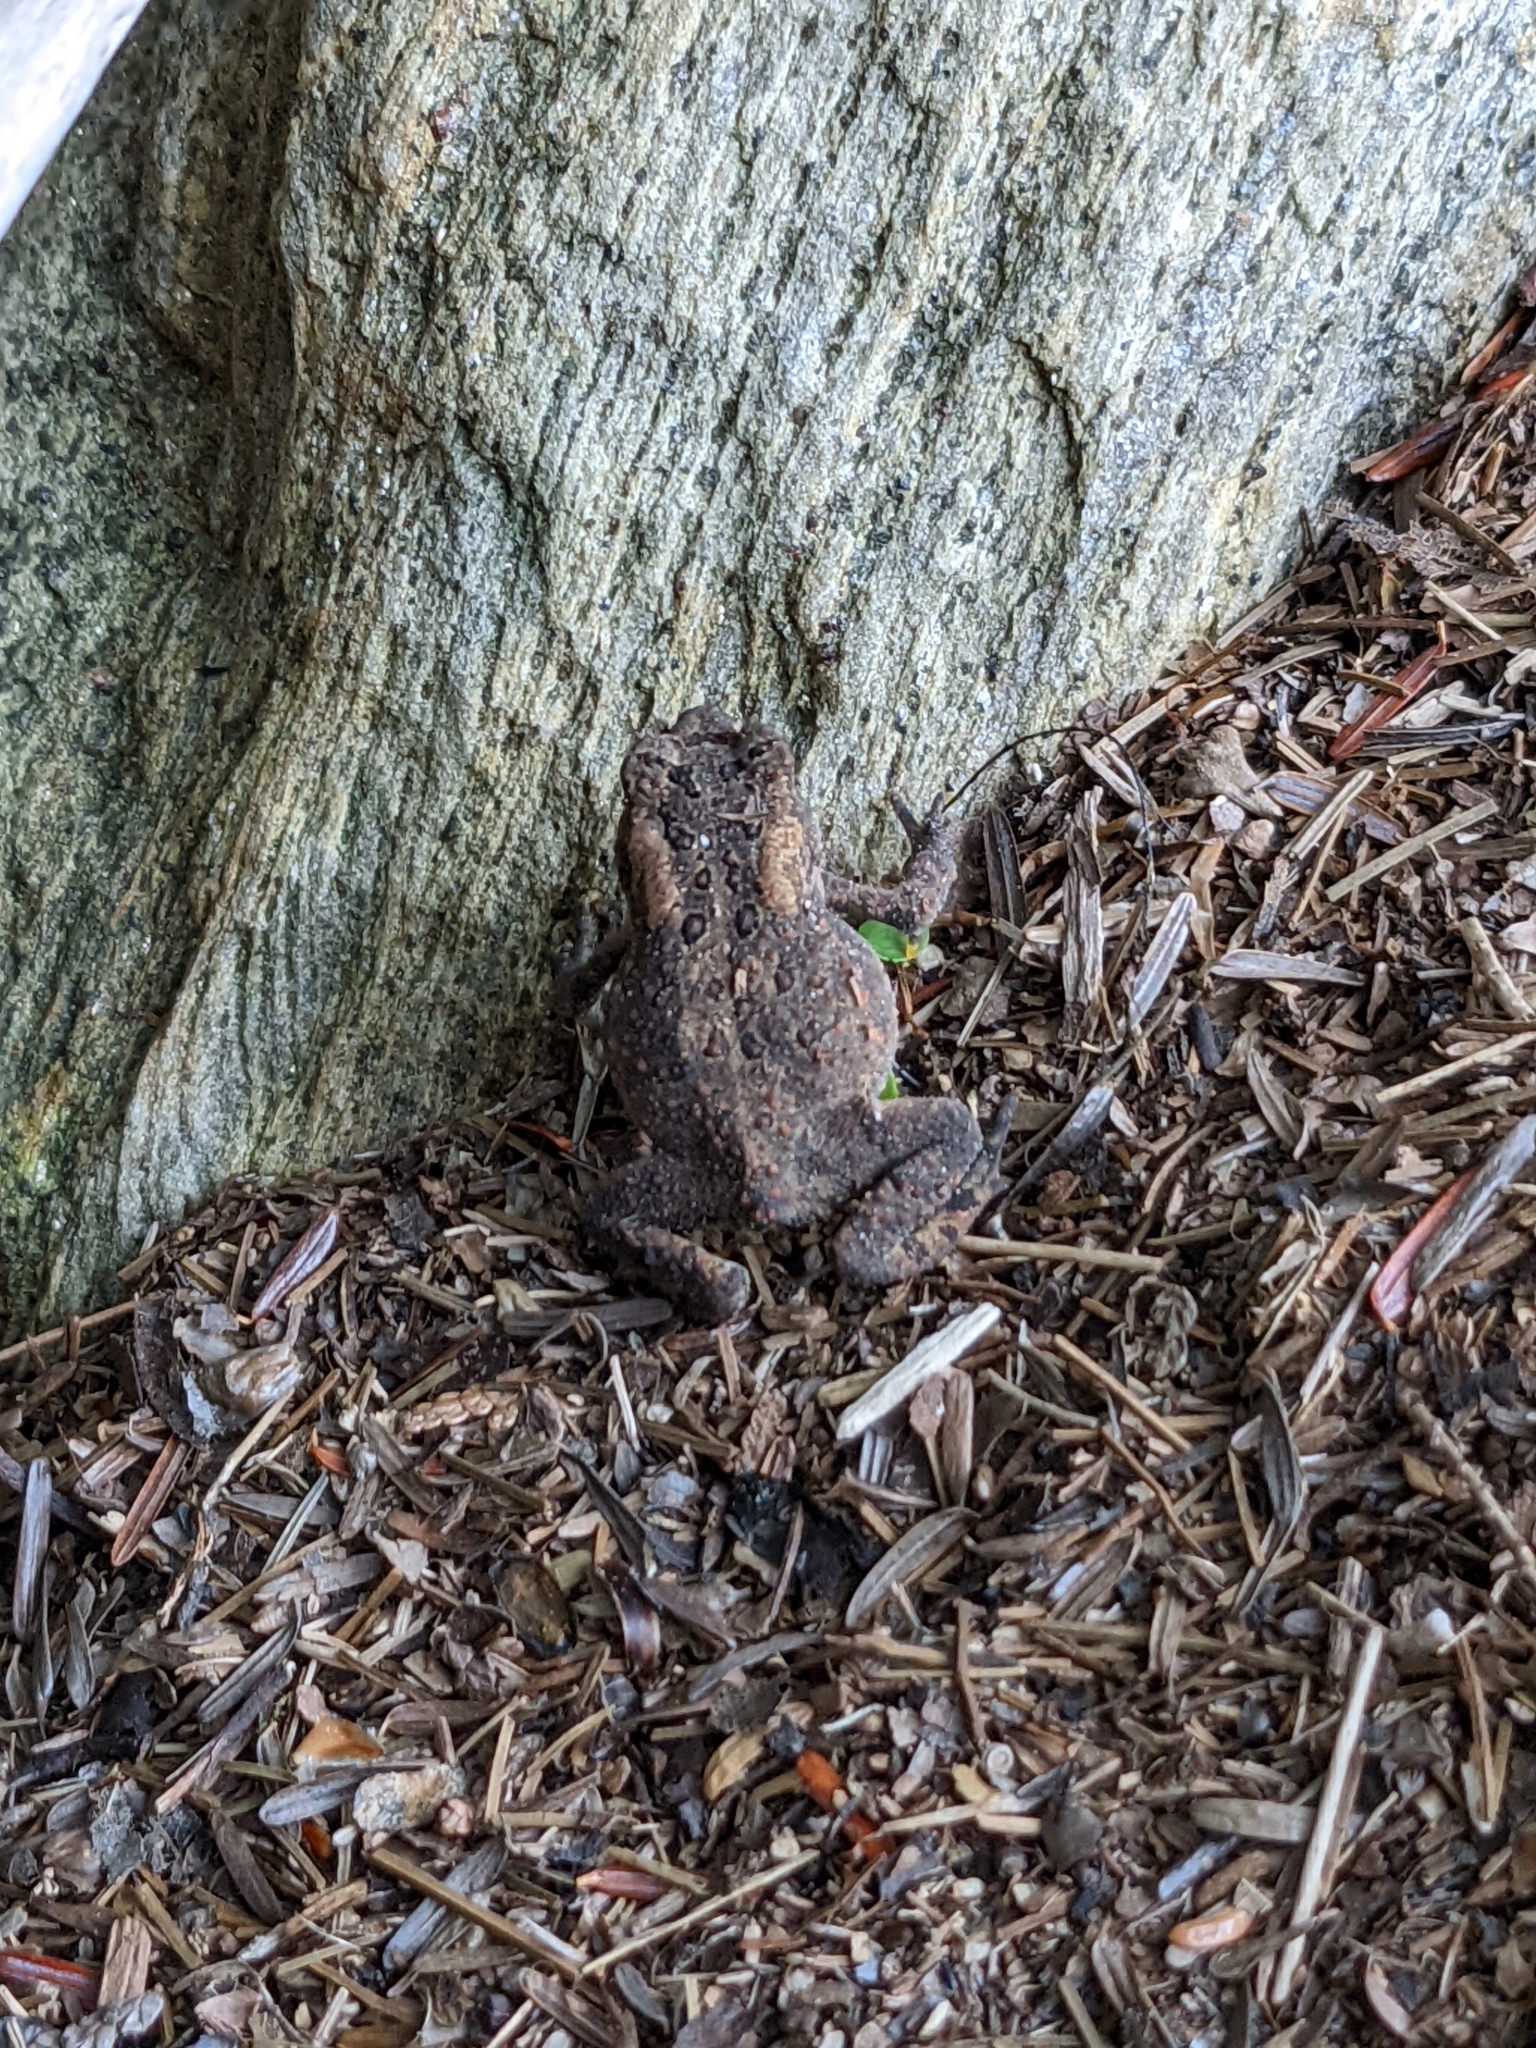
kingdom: Animalia
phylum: Chordata
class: Amphibia
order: Anura
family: Bufonidae
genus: Anaxyrus
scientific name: Anaxyrus americanus
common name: American toad
